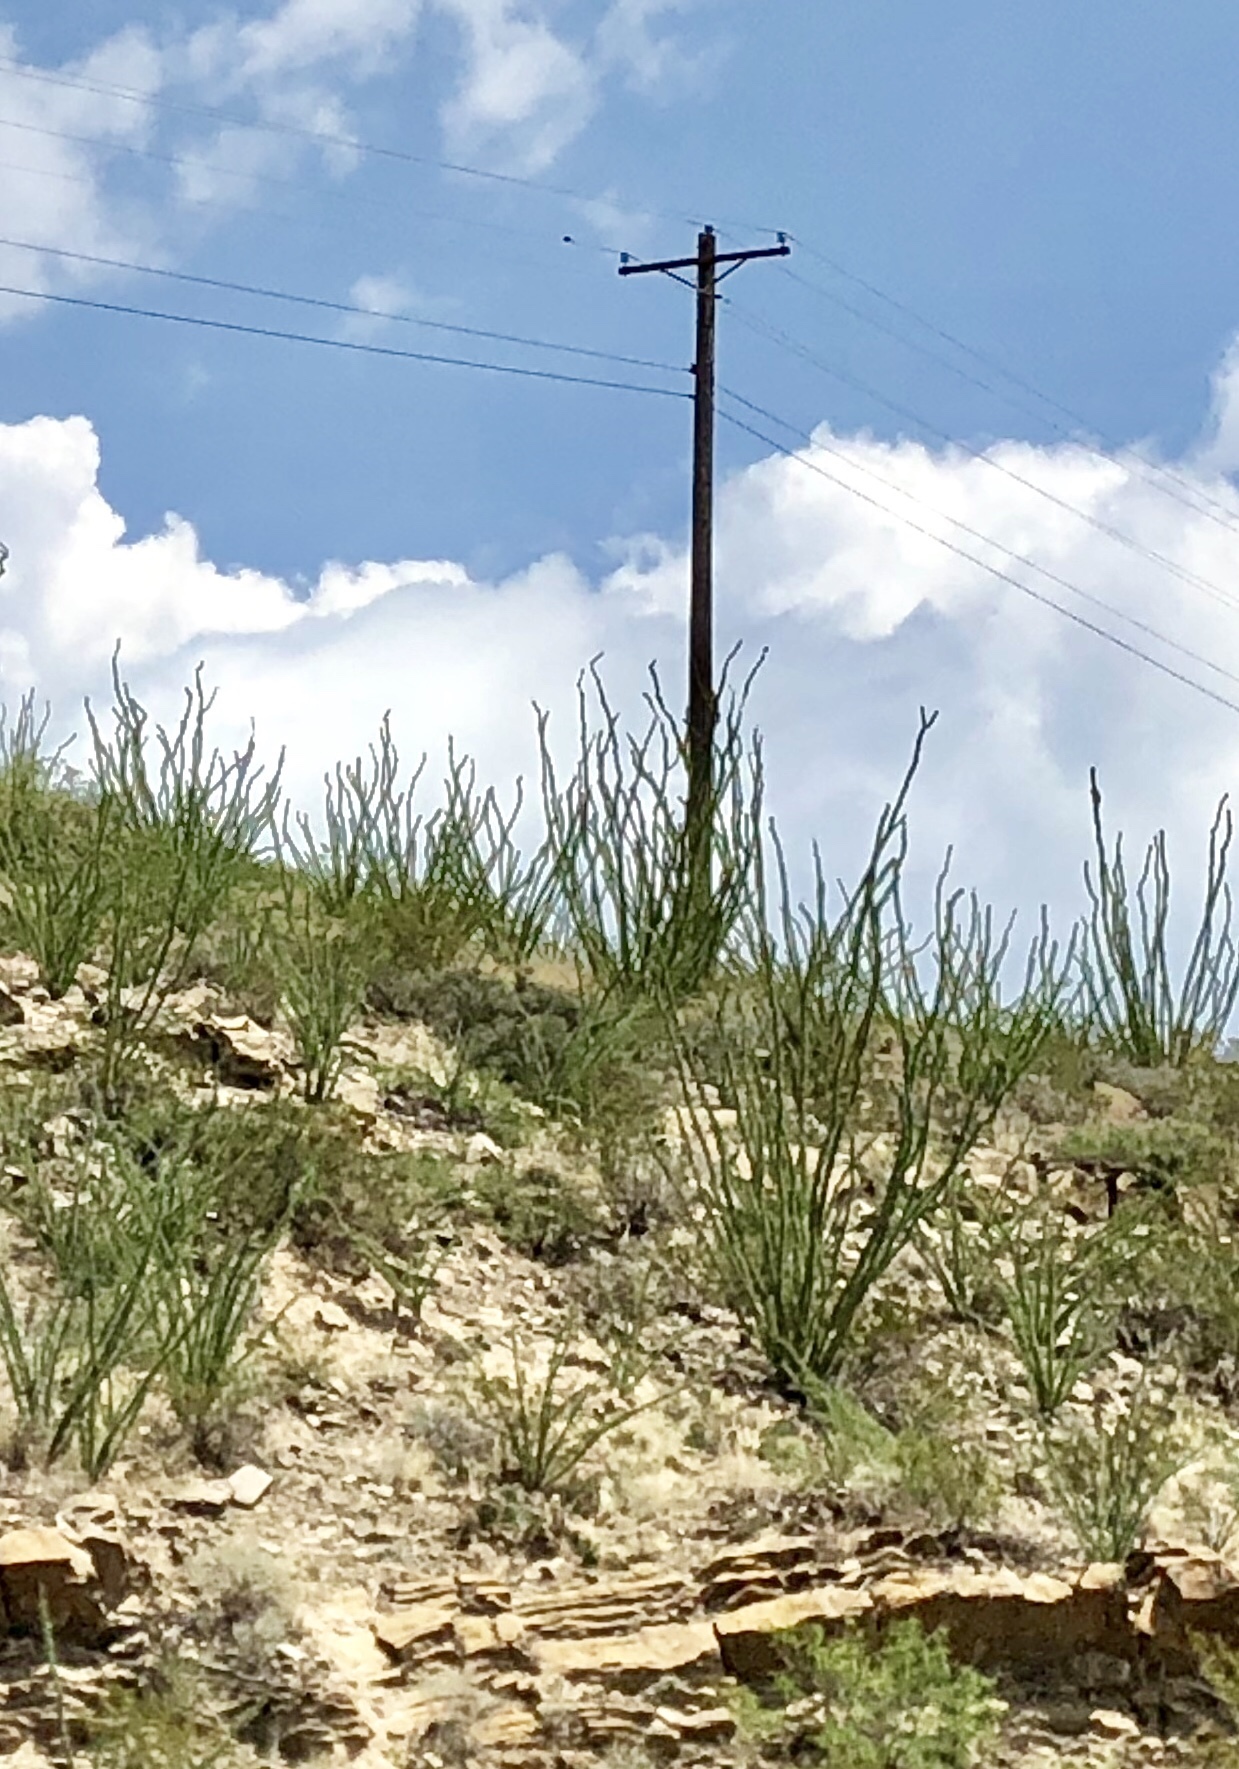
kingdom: Plantae
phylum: Tracheophyta
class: Magnoliopsida
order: Ericales
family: Fouquieriaceae
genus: Fouquieria
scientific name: Fouquieria splendens
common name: Vine-cactus
